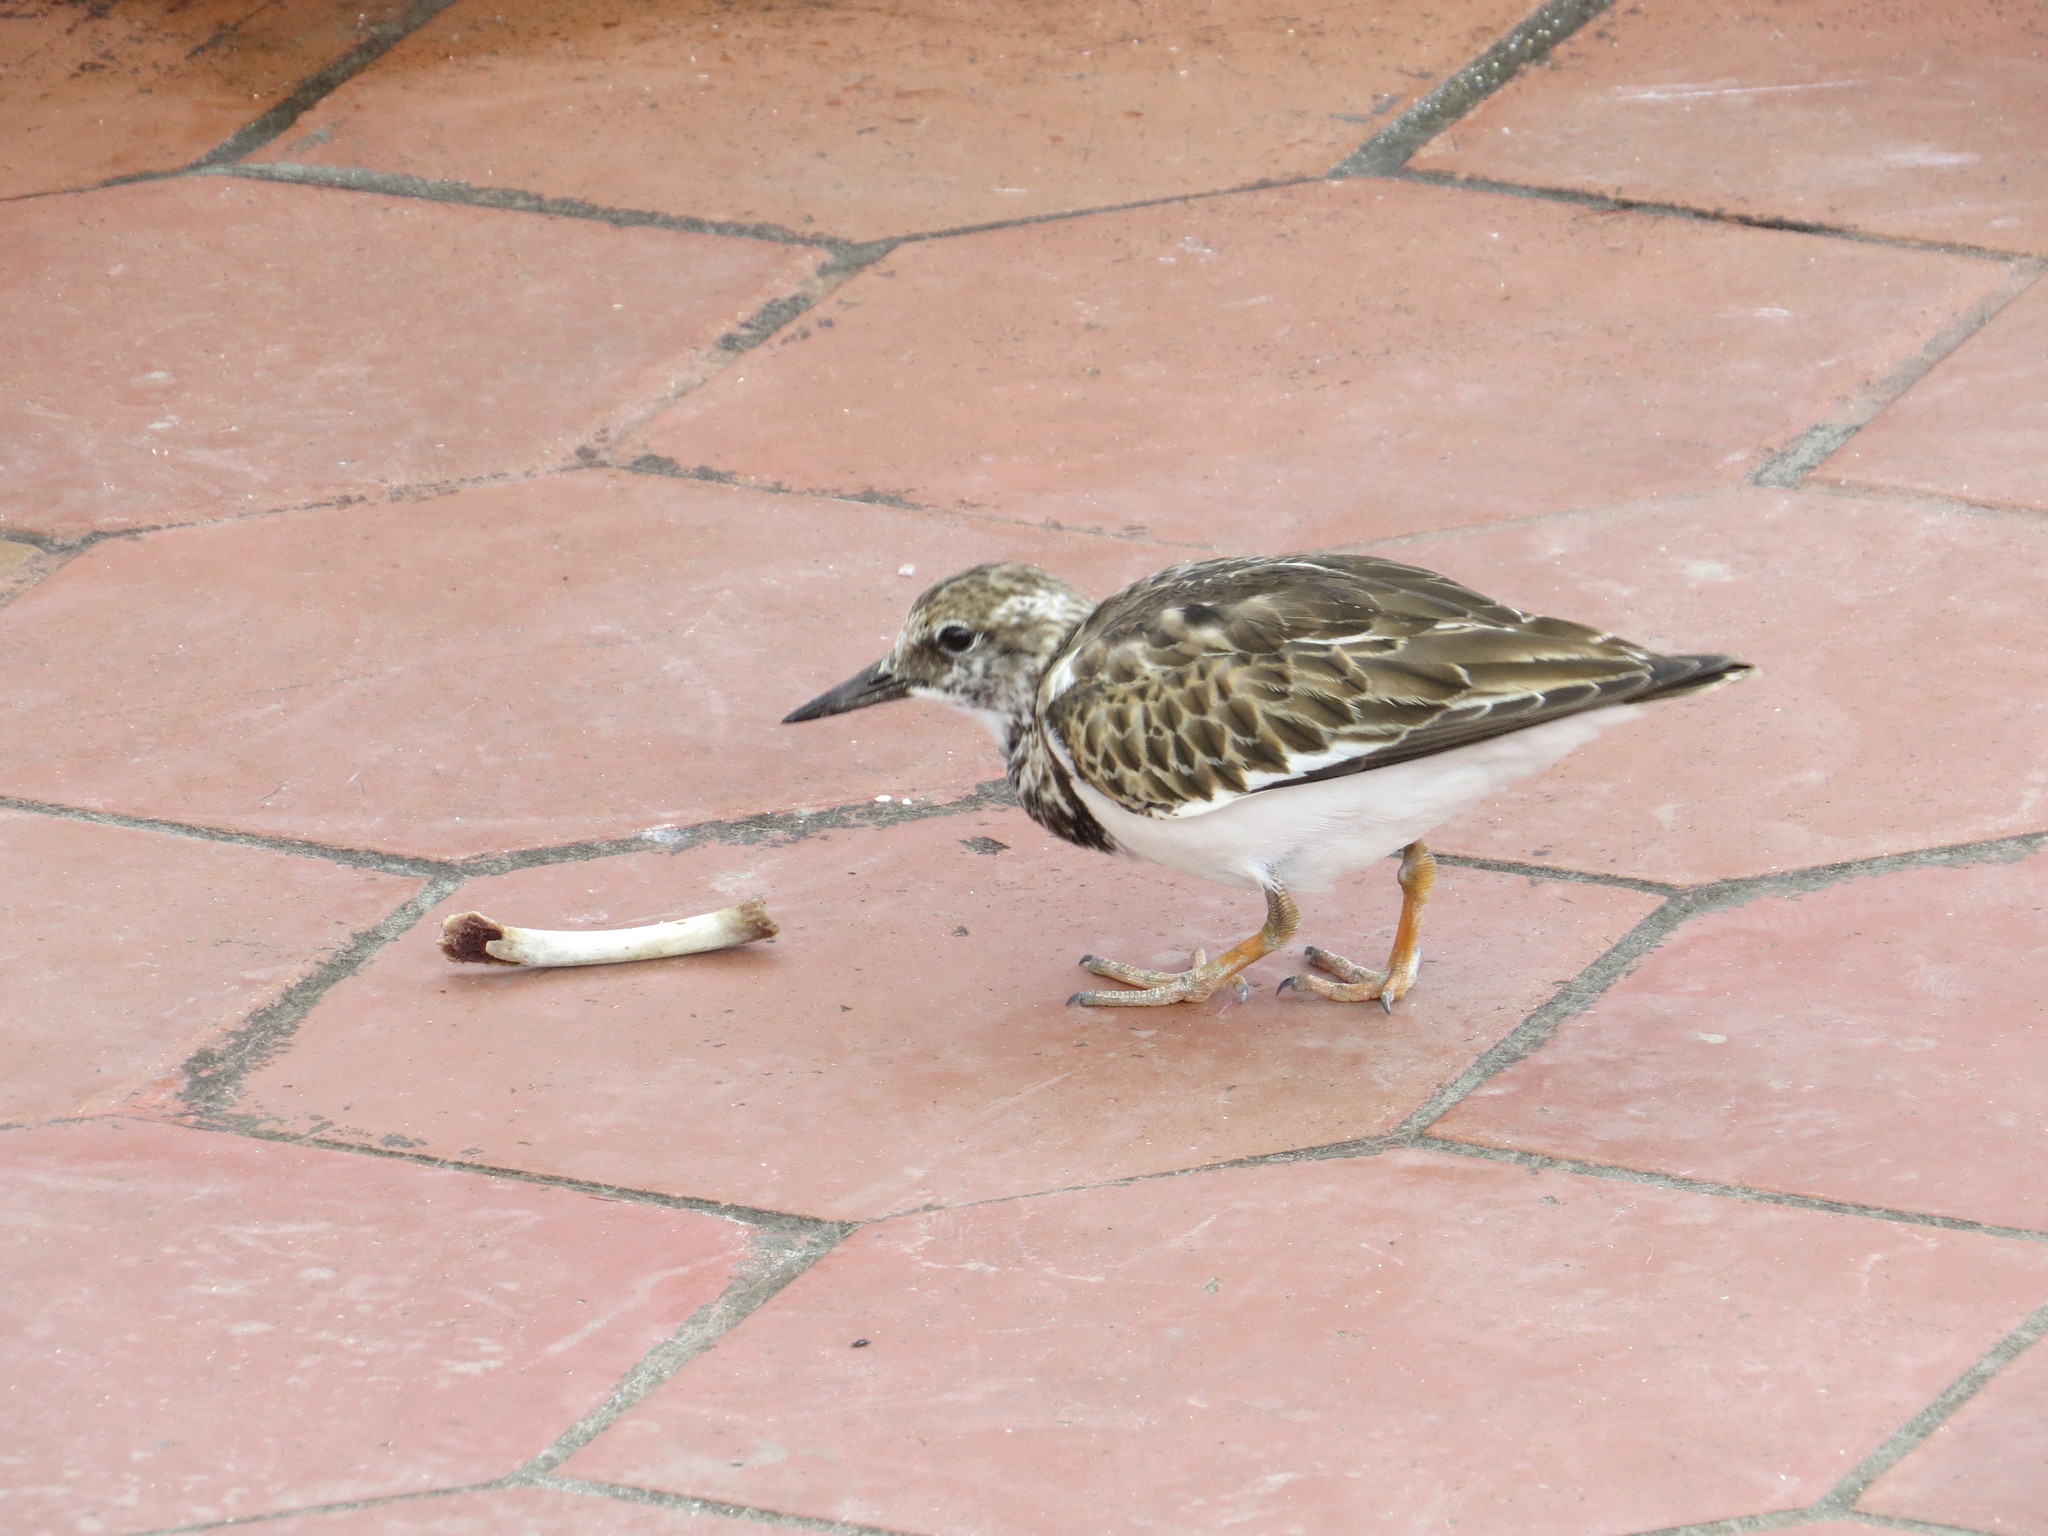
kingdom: Animalia
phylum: Chordata
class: Aves
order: Charadriiformes
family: Scolopacidae
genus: Arenaria
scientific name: Arenaria interpres
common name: Ruddy turnstone
